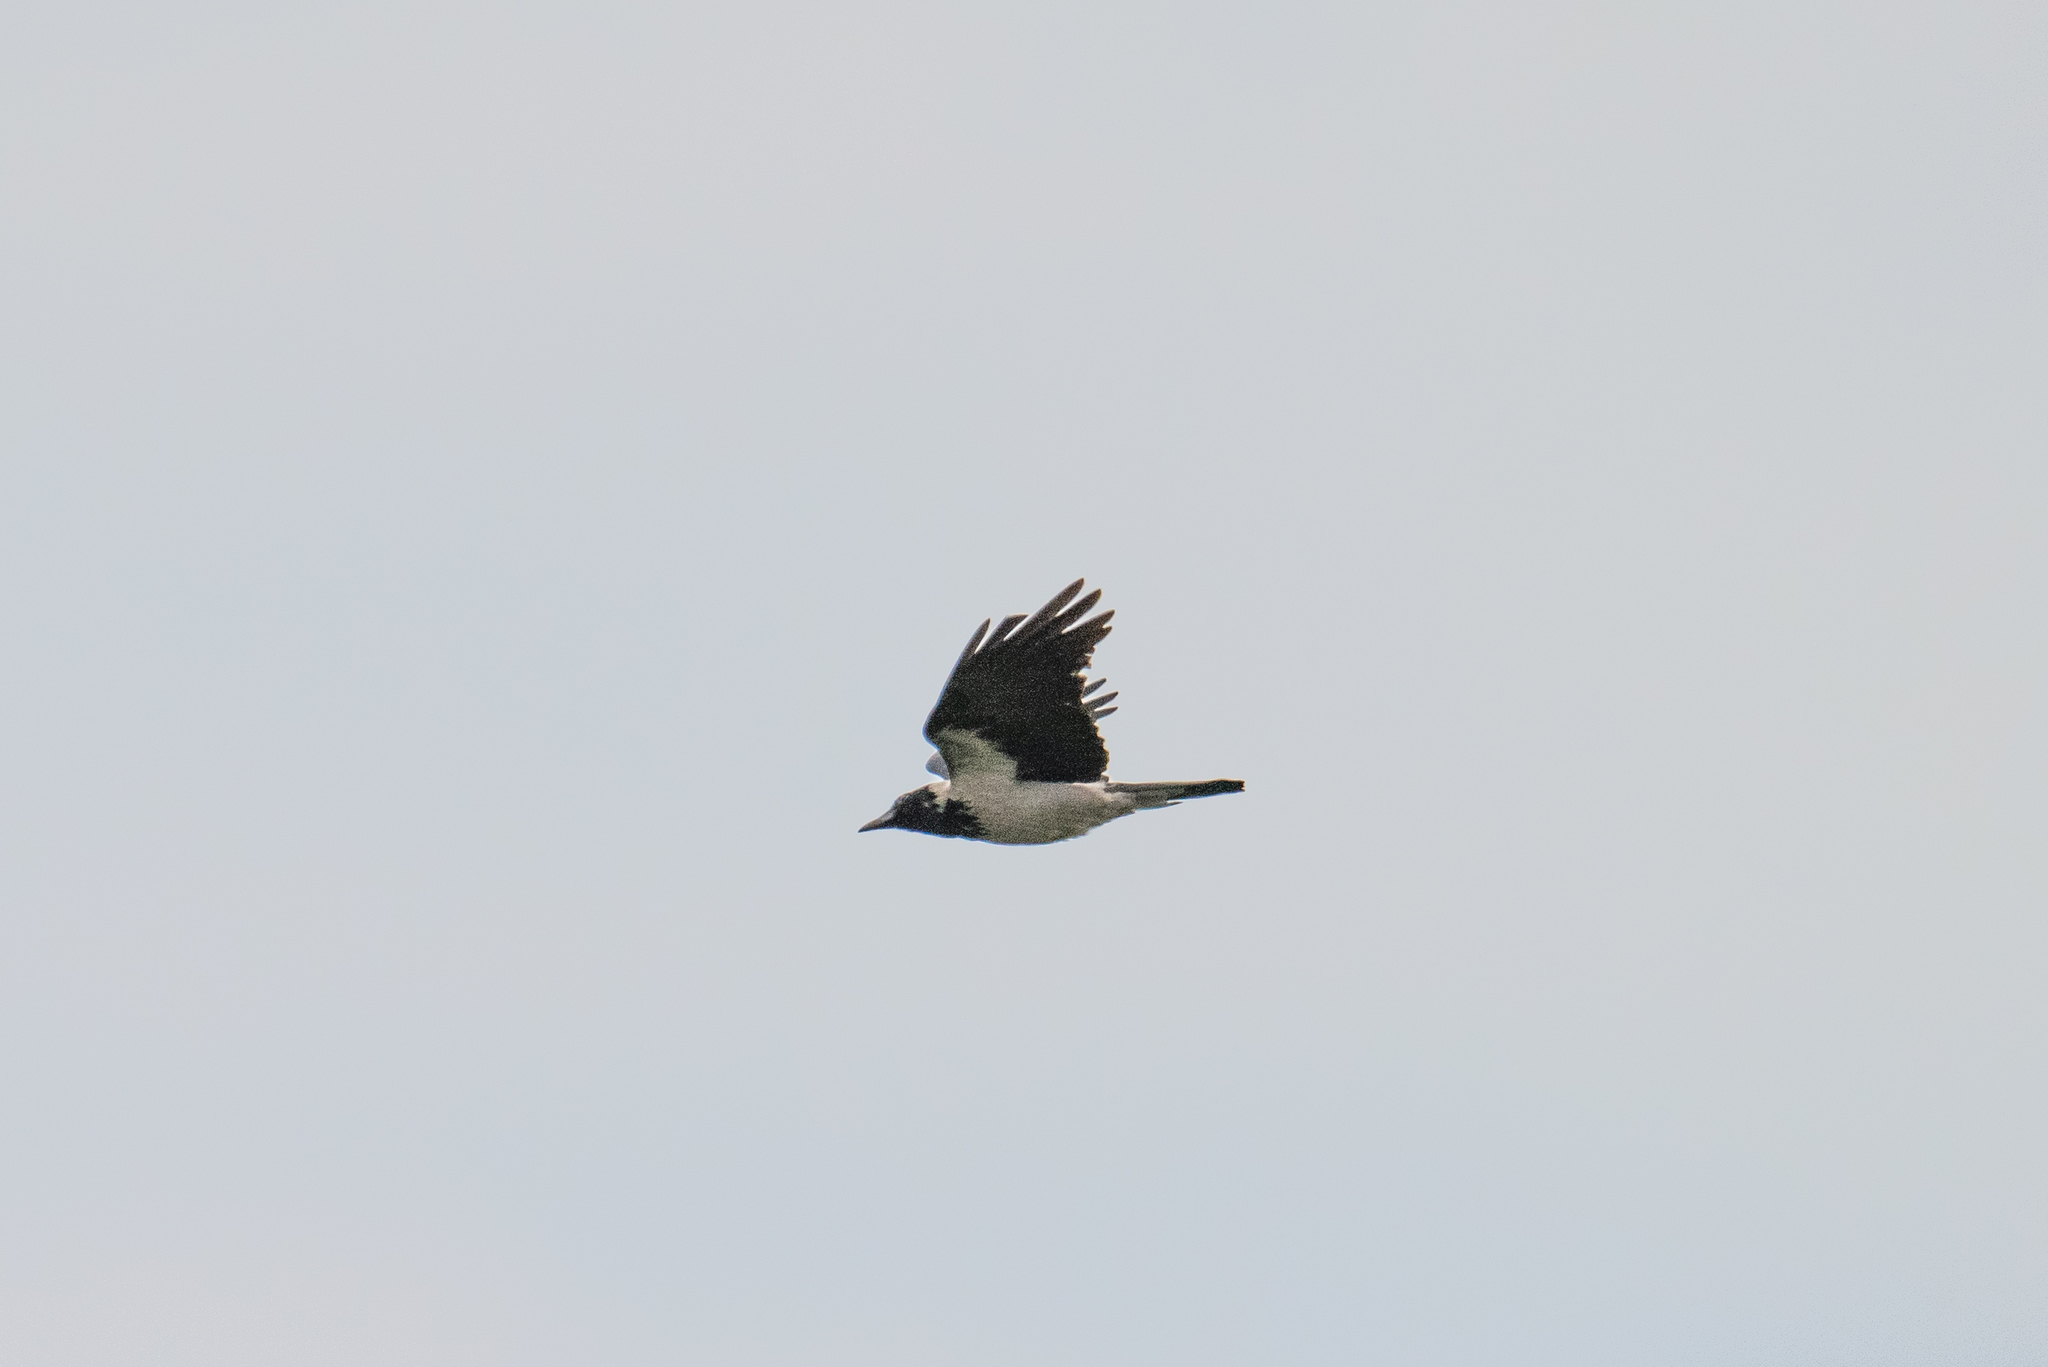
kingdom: Animalia
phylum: Chordata
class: Aves
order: Passeriformes
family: Corvidae
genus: Corvus
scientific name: Corvus cornix
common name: Hooded crow
